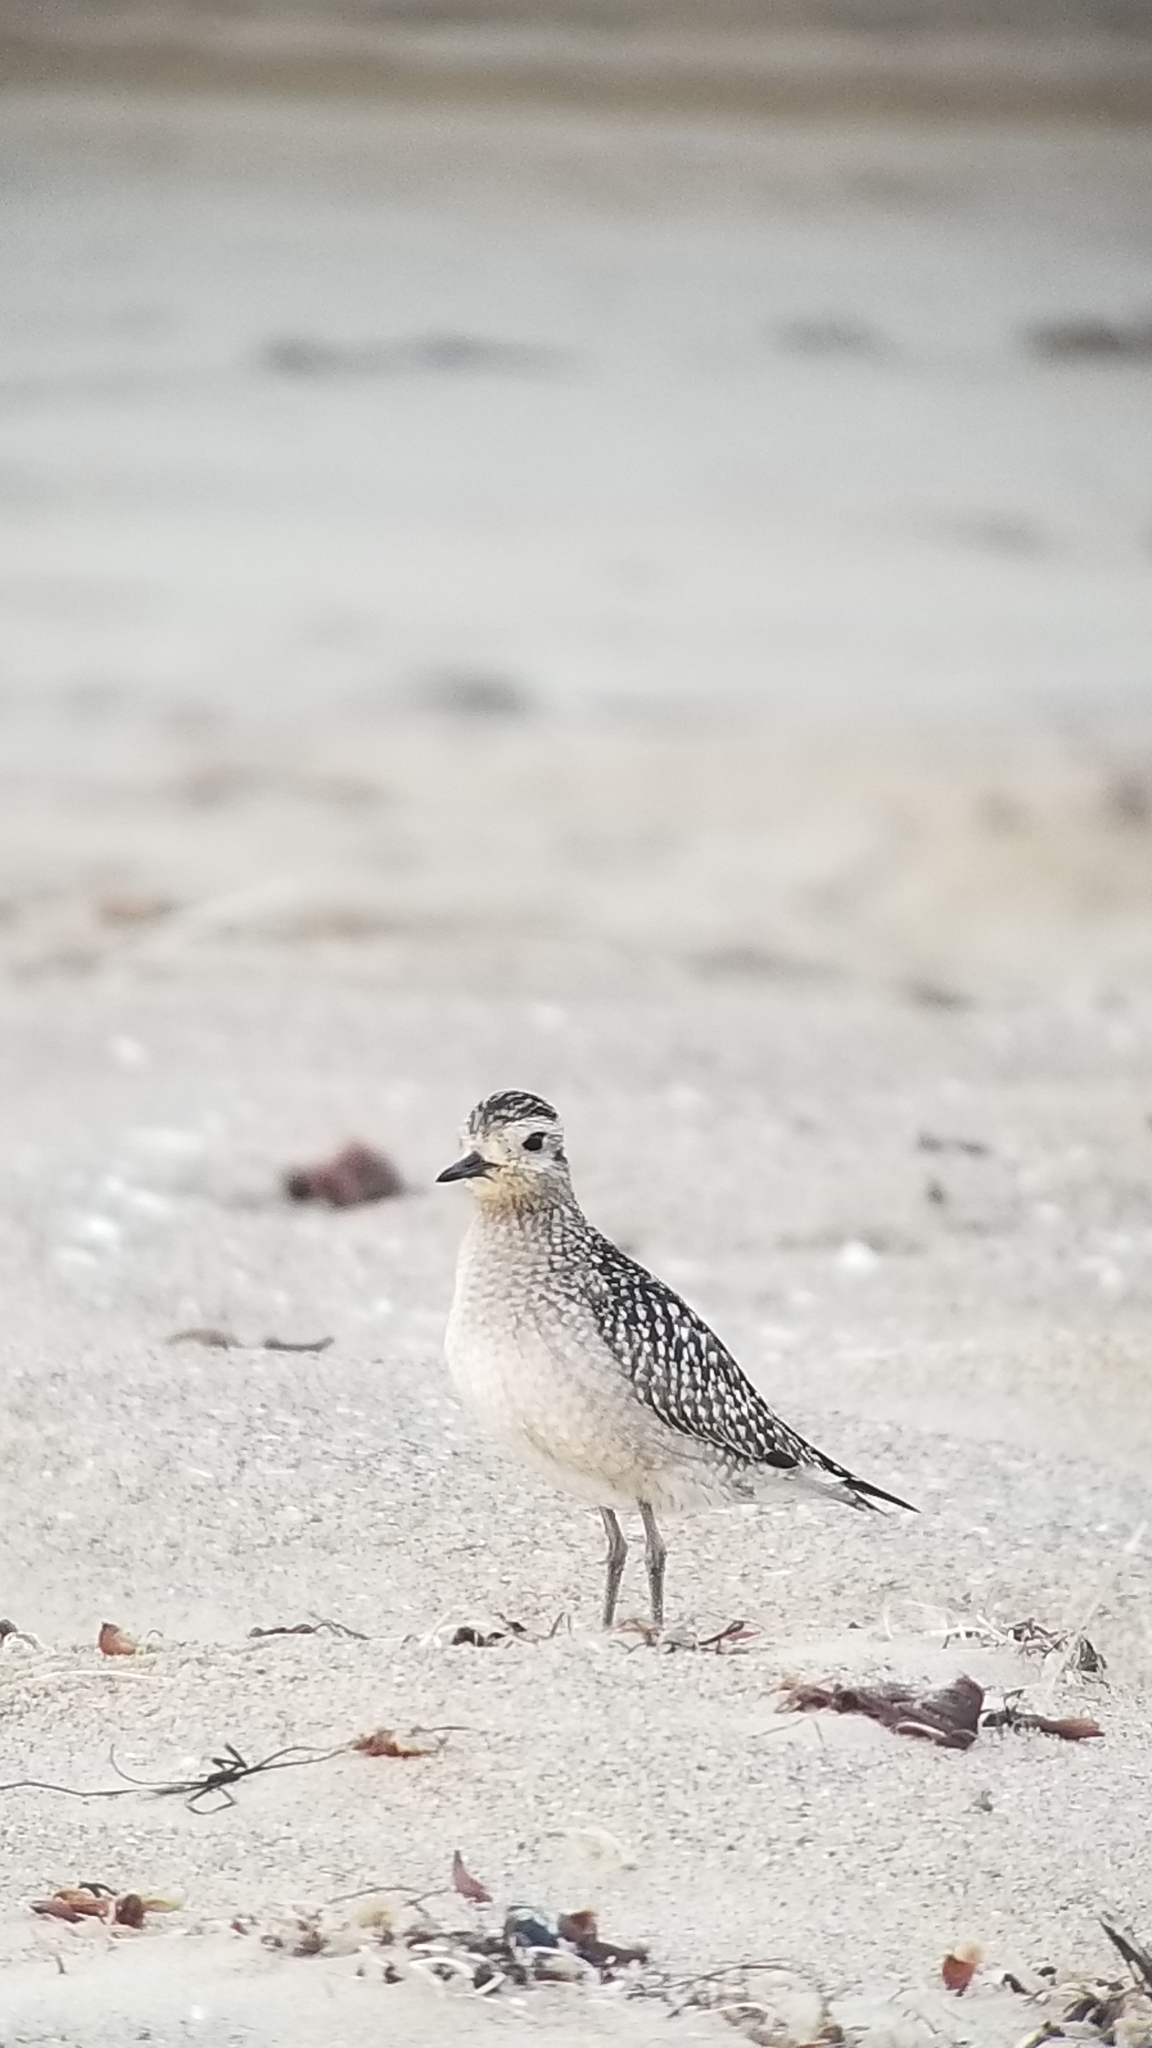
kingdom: Animalia
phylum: Chordata
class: Aves
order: Charadriiformes
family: Charadriidae
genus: Pluvialis
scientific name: Pluvialis fulva
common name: Pacific golden plover
